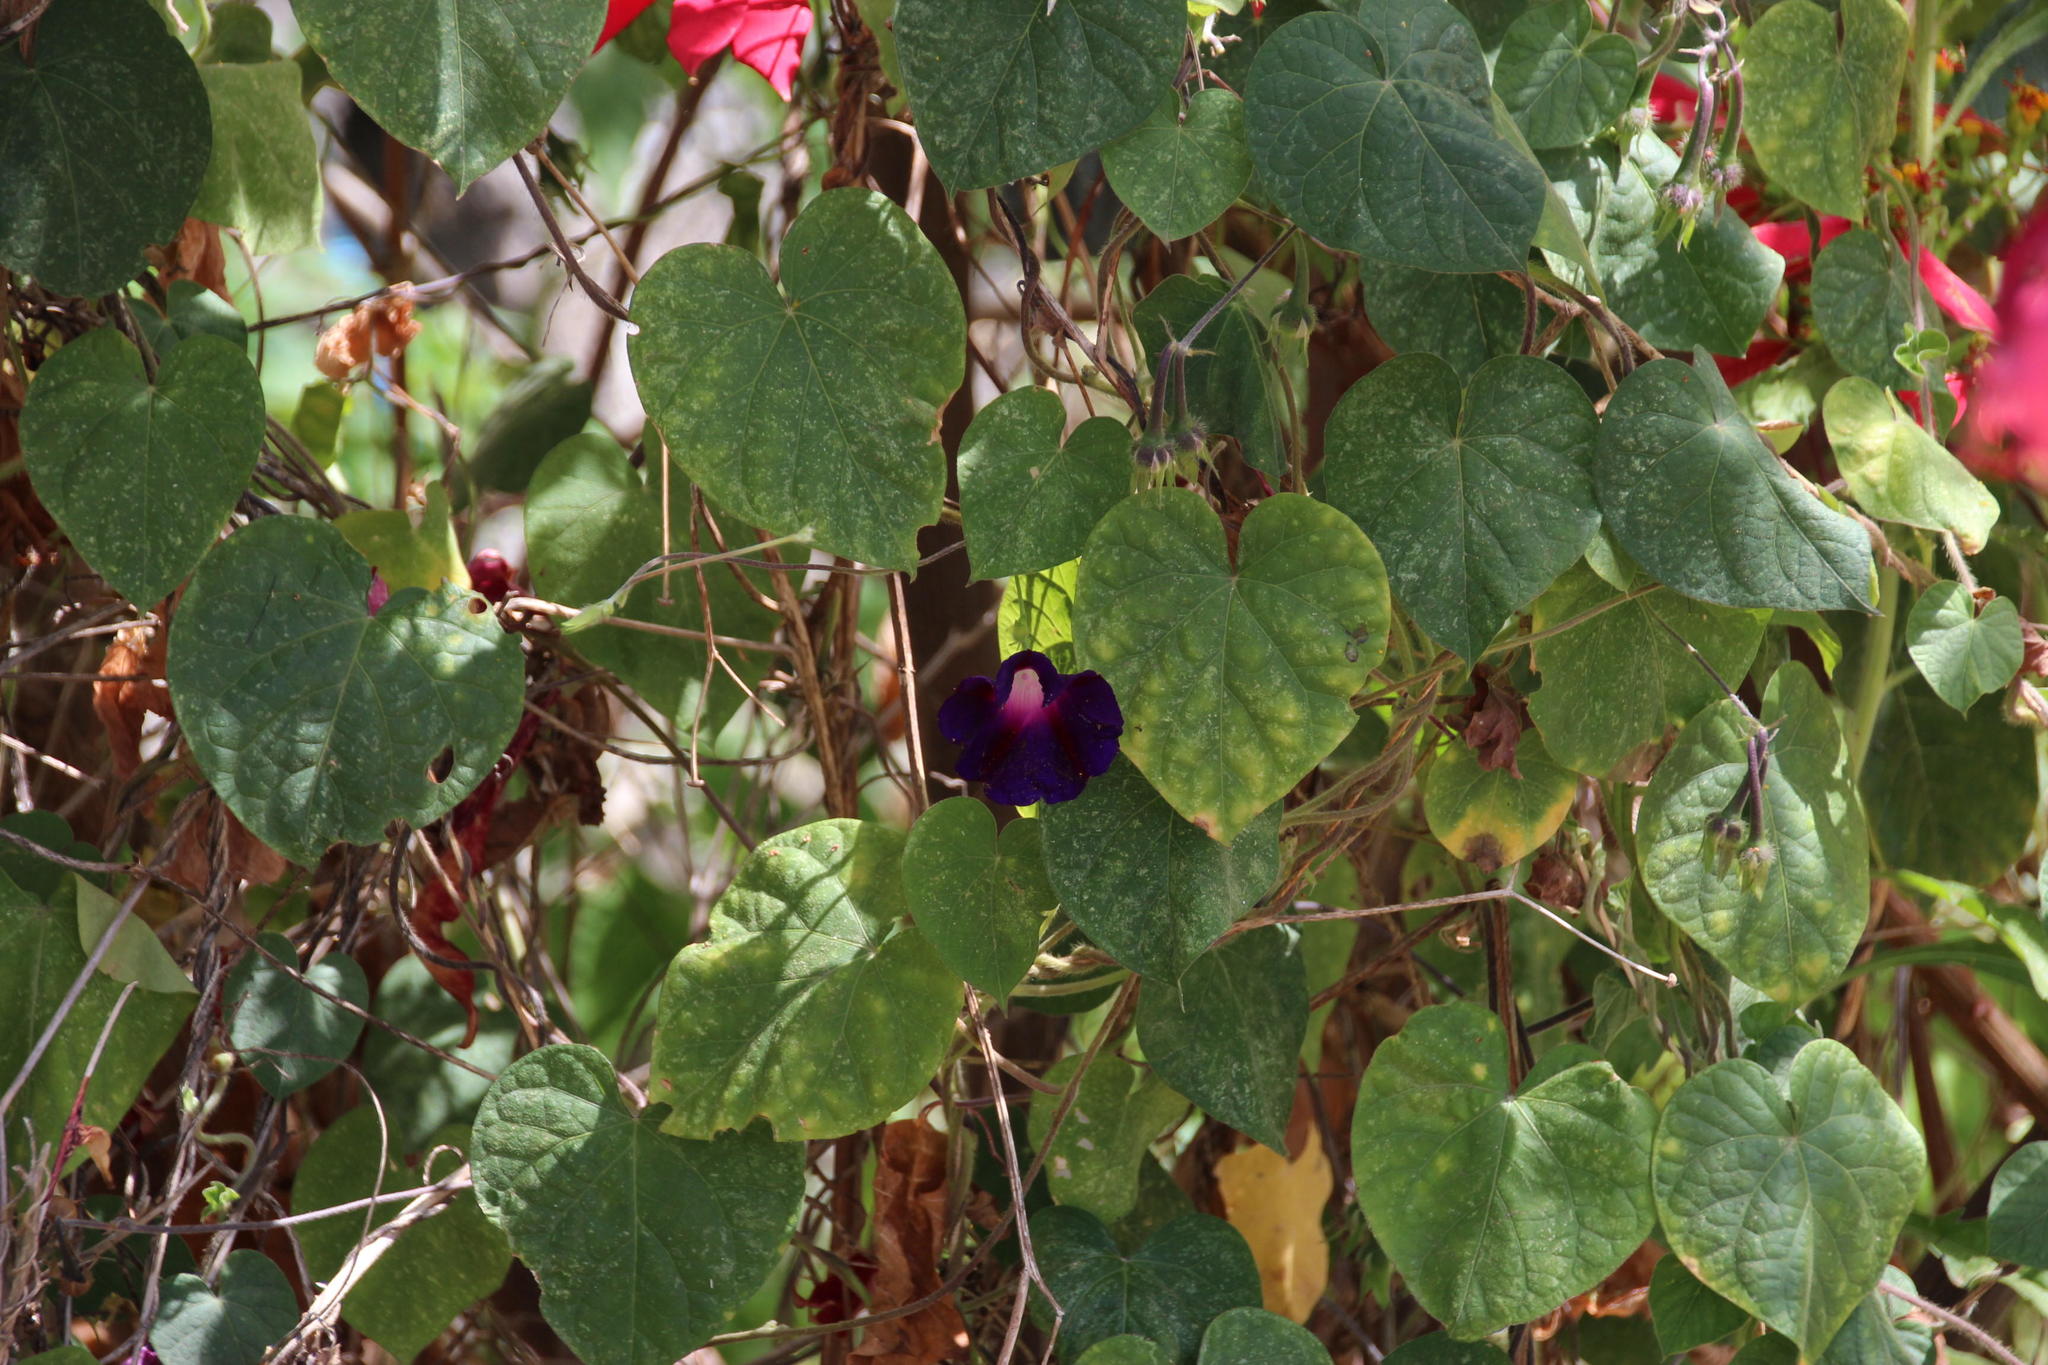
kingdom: Plantae
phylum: Tracheophyta
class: Magnoliopsida
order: Solanales
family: Convolvulaceae
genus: Ipomoea
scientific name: Ipomoea purpurea
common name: Common morning-glory
